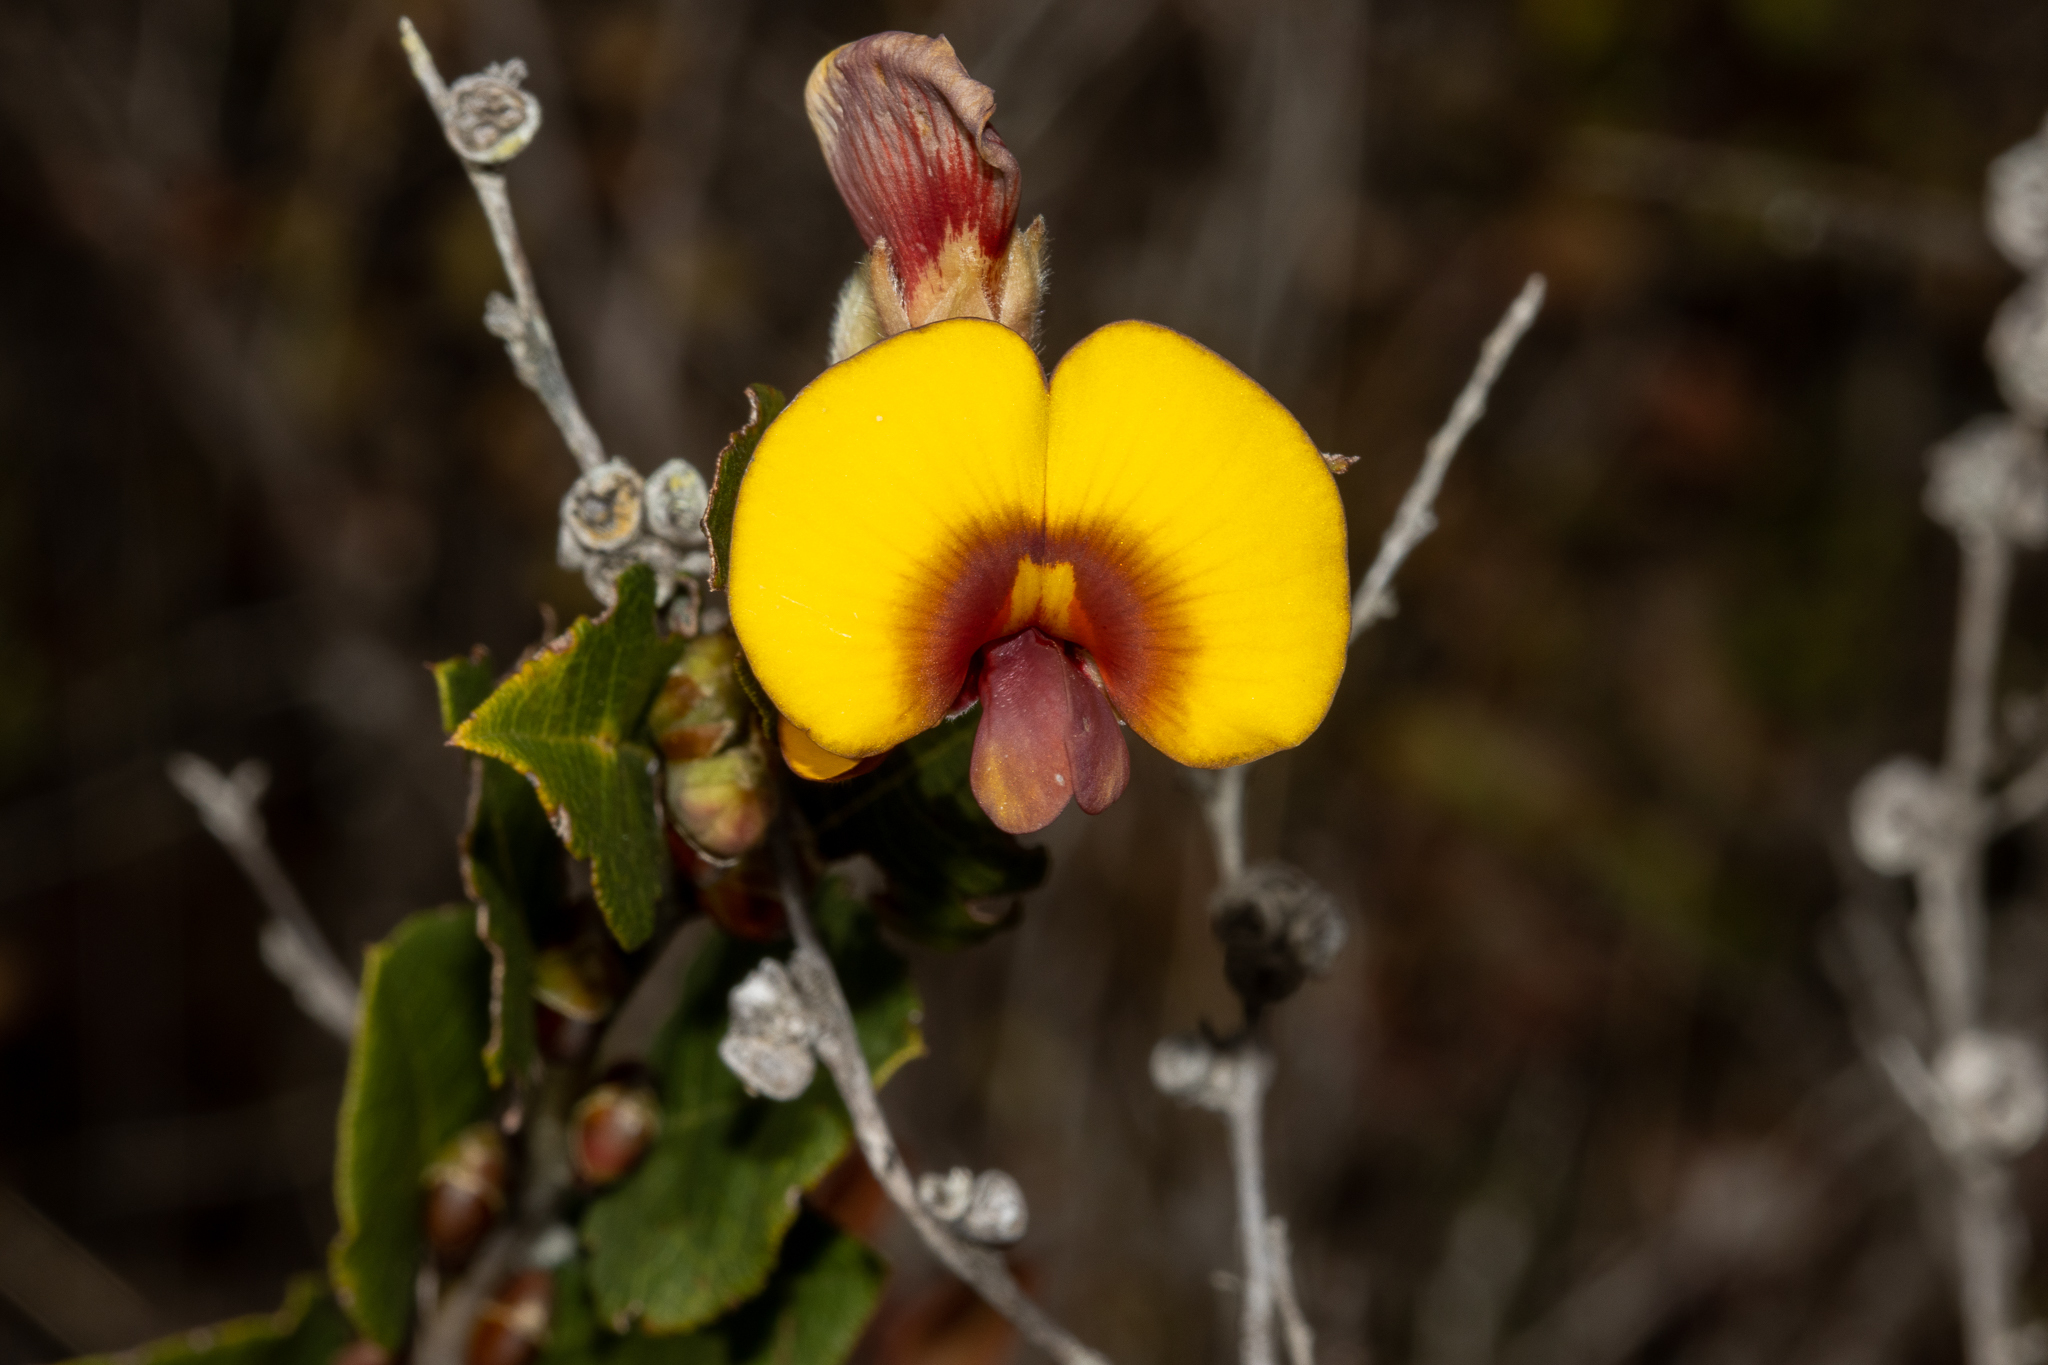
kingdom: Plantae
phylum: Tracheophyta
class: Magnoliopsida
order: Fabales
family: Fabaceae
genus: Bossiaea
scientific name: Bossiaea ornata
